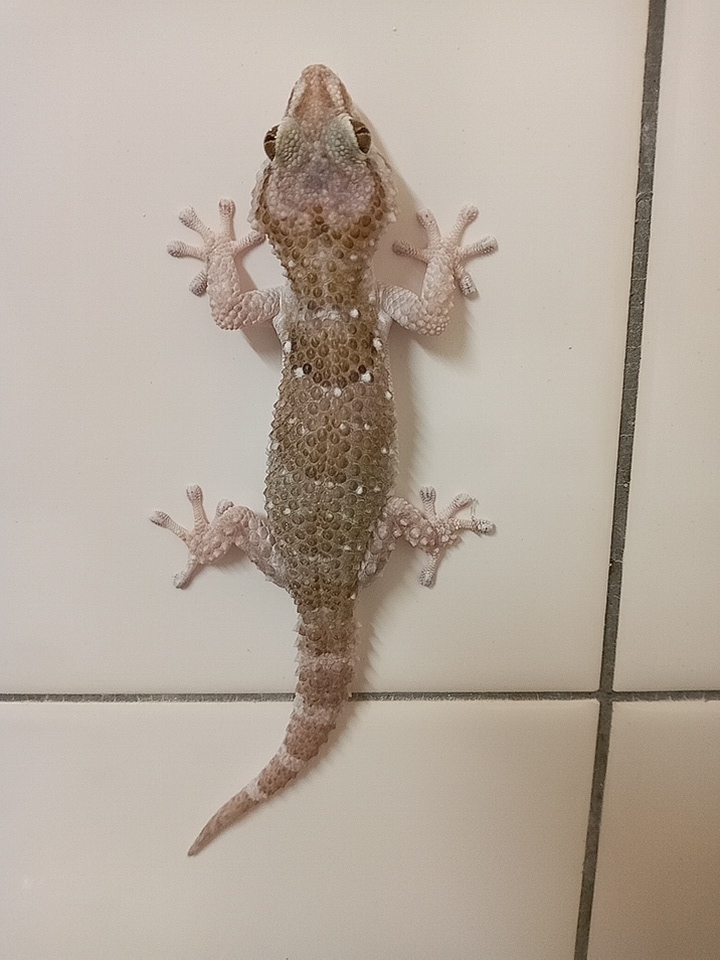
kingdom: Animalia
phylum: Chordata
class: Squamata
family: Gekkonidae
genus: Chondrodactylus
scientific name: Chondrodactylus laevigatus
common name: Fischer's thick-toed gecko
